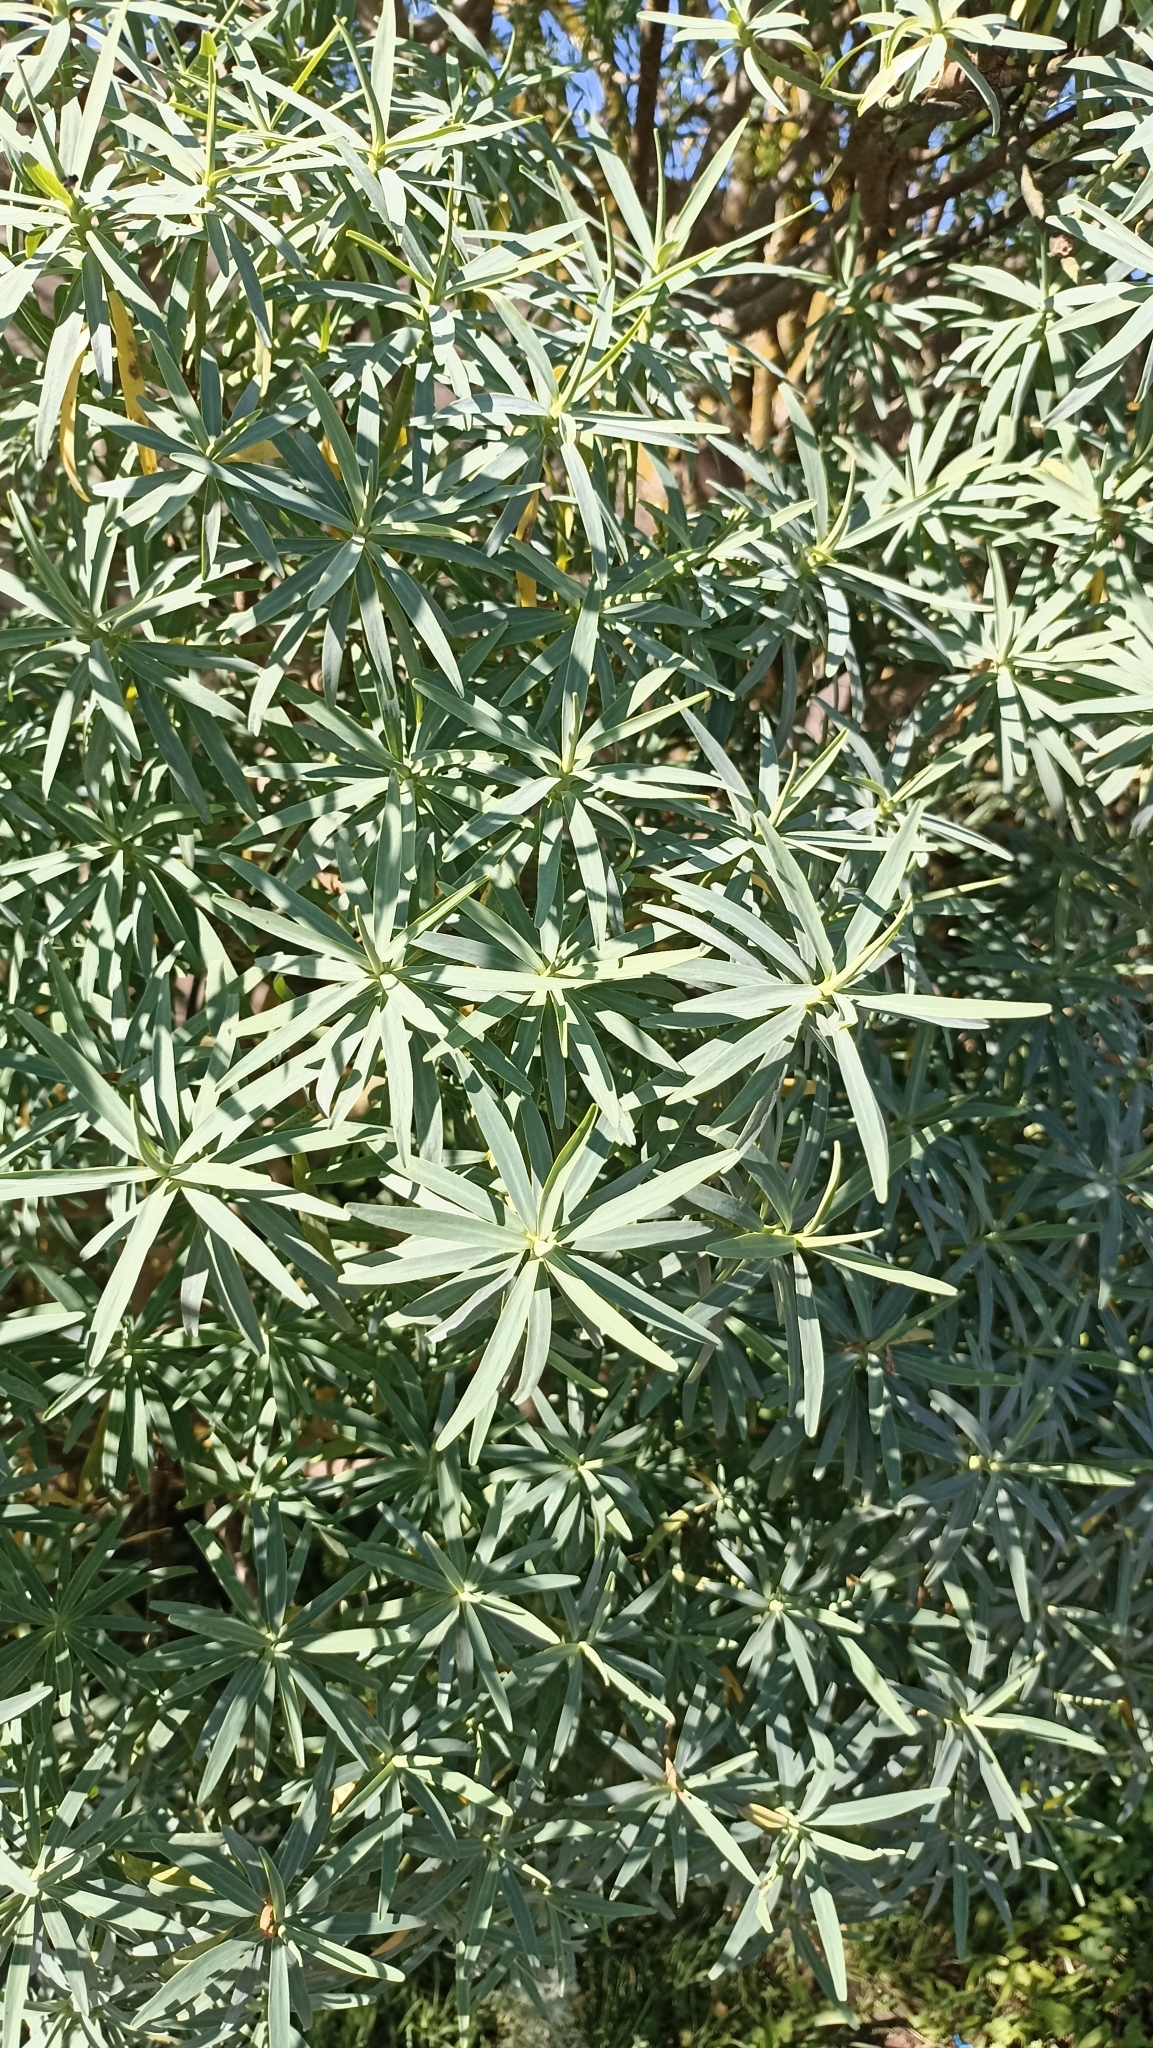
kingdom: Plantae
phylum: Tracheophyta
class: Magnoliopsida
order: Malpighiales
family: Euphorbiaceae
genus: Euphorbia
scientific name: Euphorbia lamarckii
